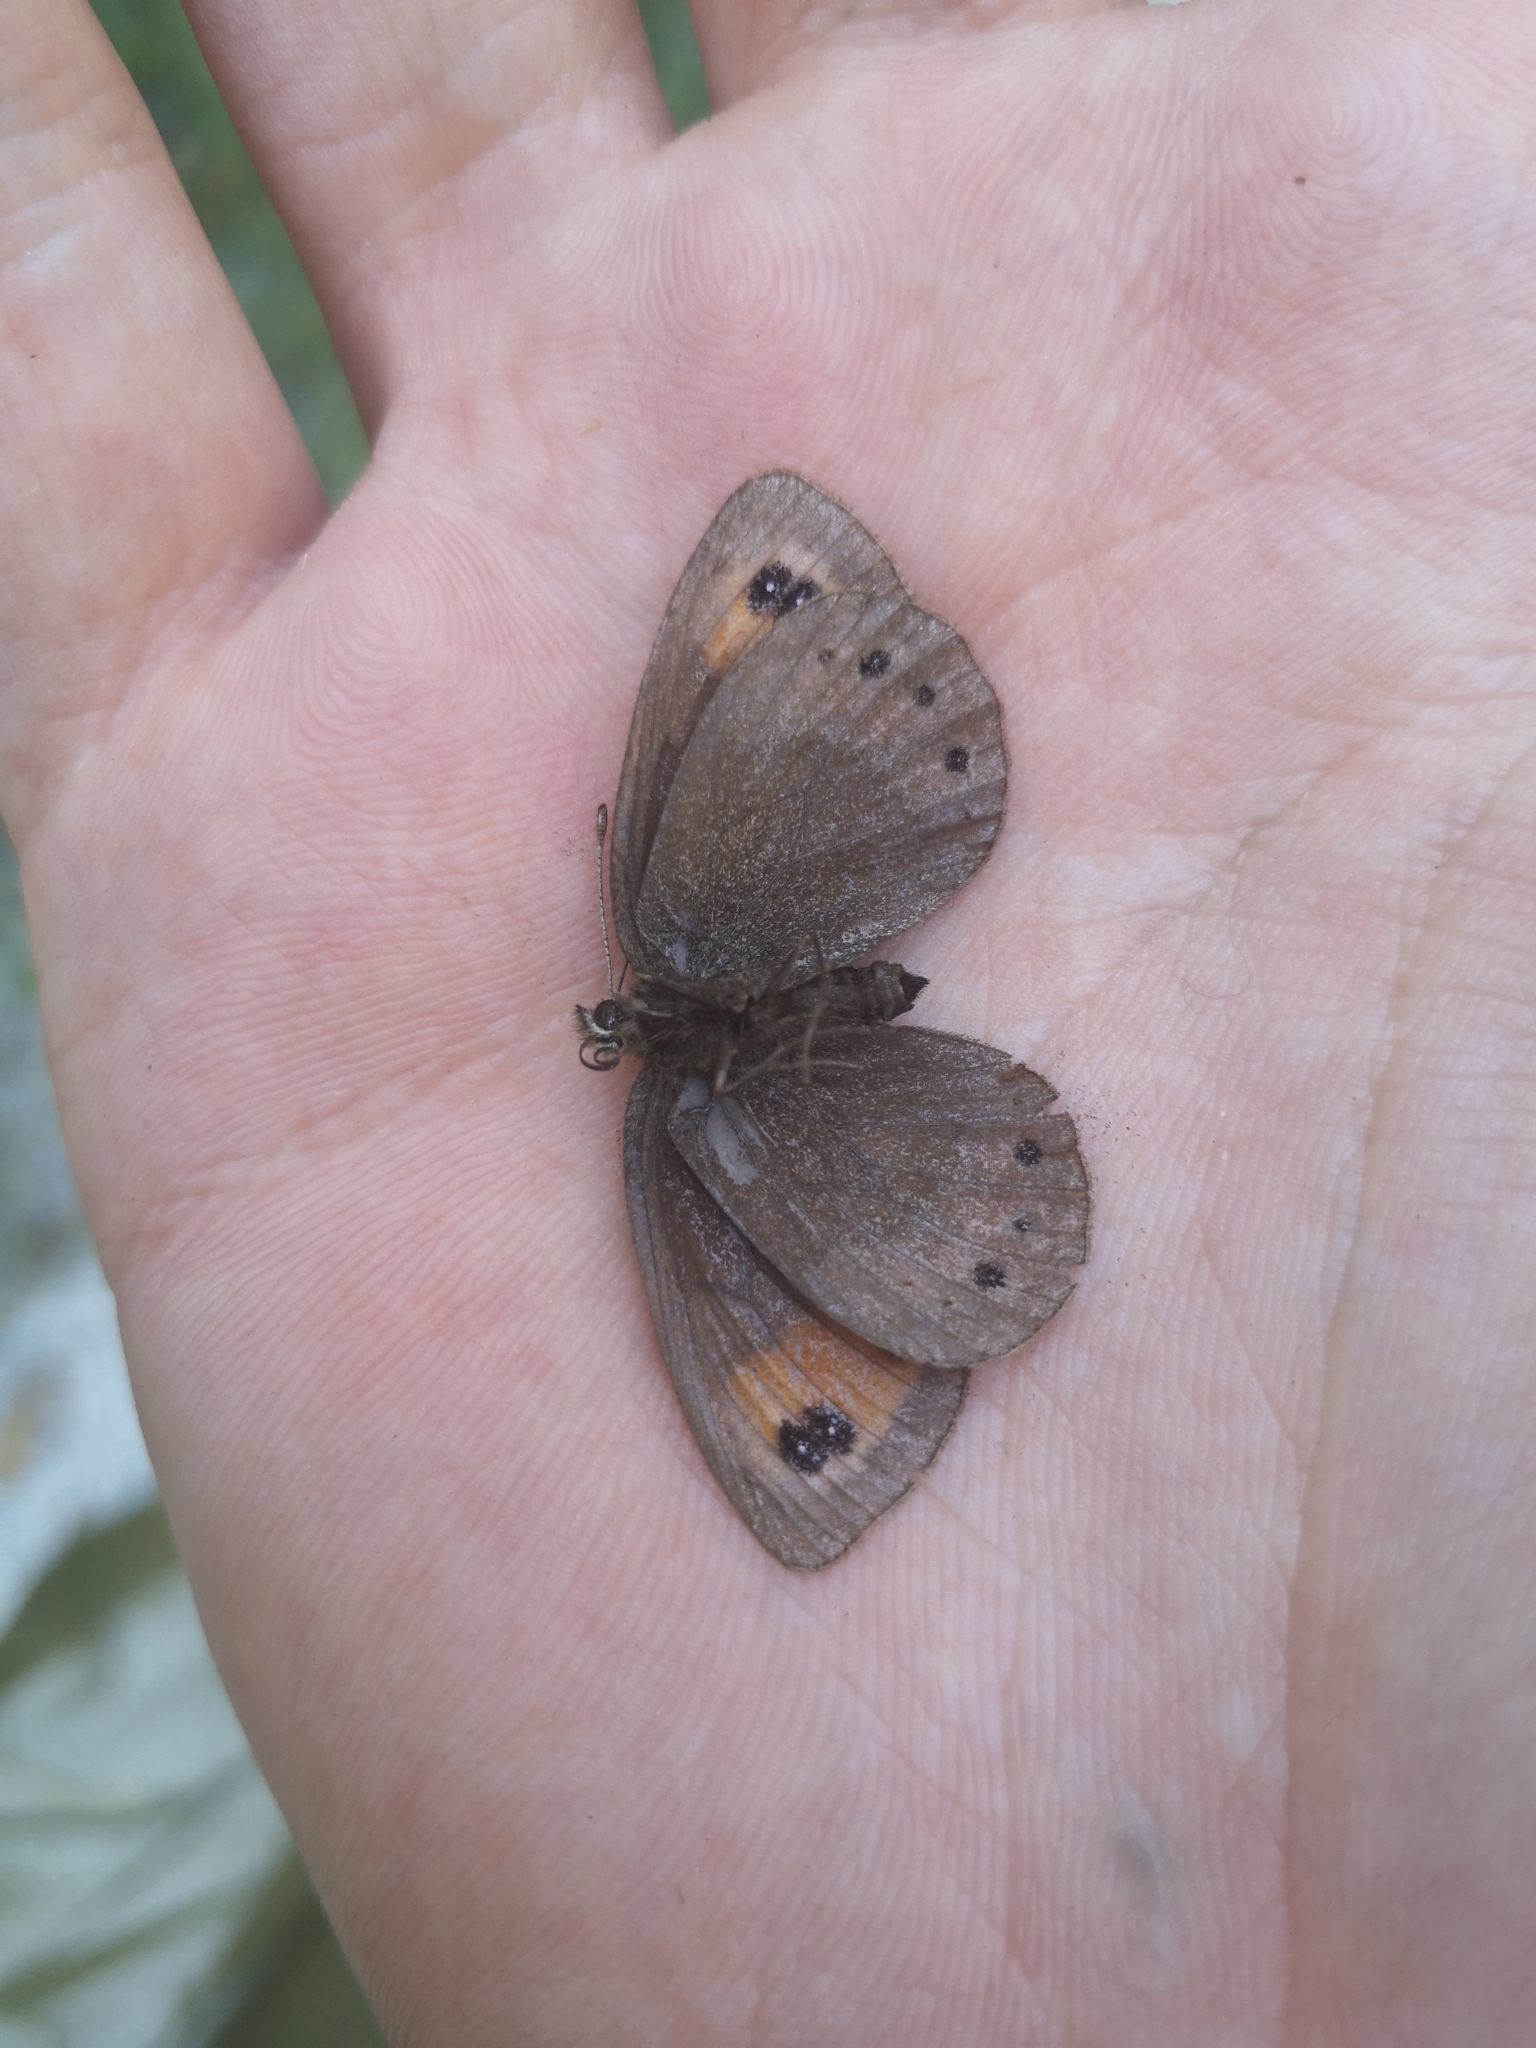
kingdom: Animalia
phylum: Arthropoda
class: Insecta
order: Lepidoptera
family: Nymphalidae
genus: Erebia
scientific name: Erebia meolans
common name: Piedmont ringlet
